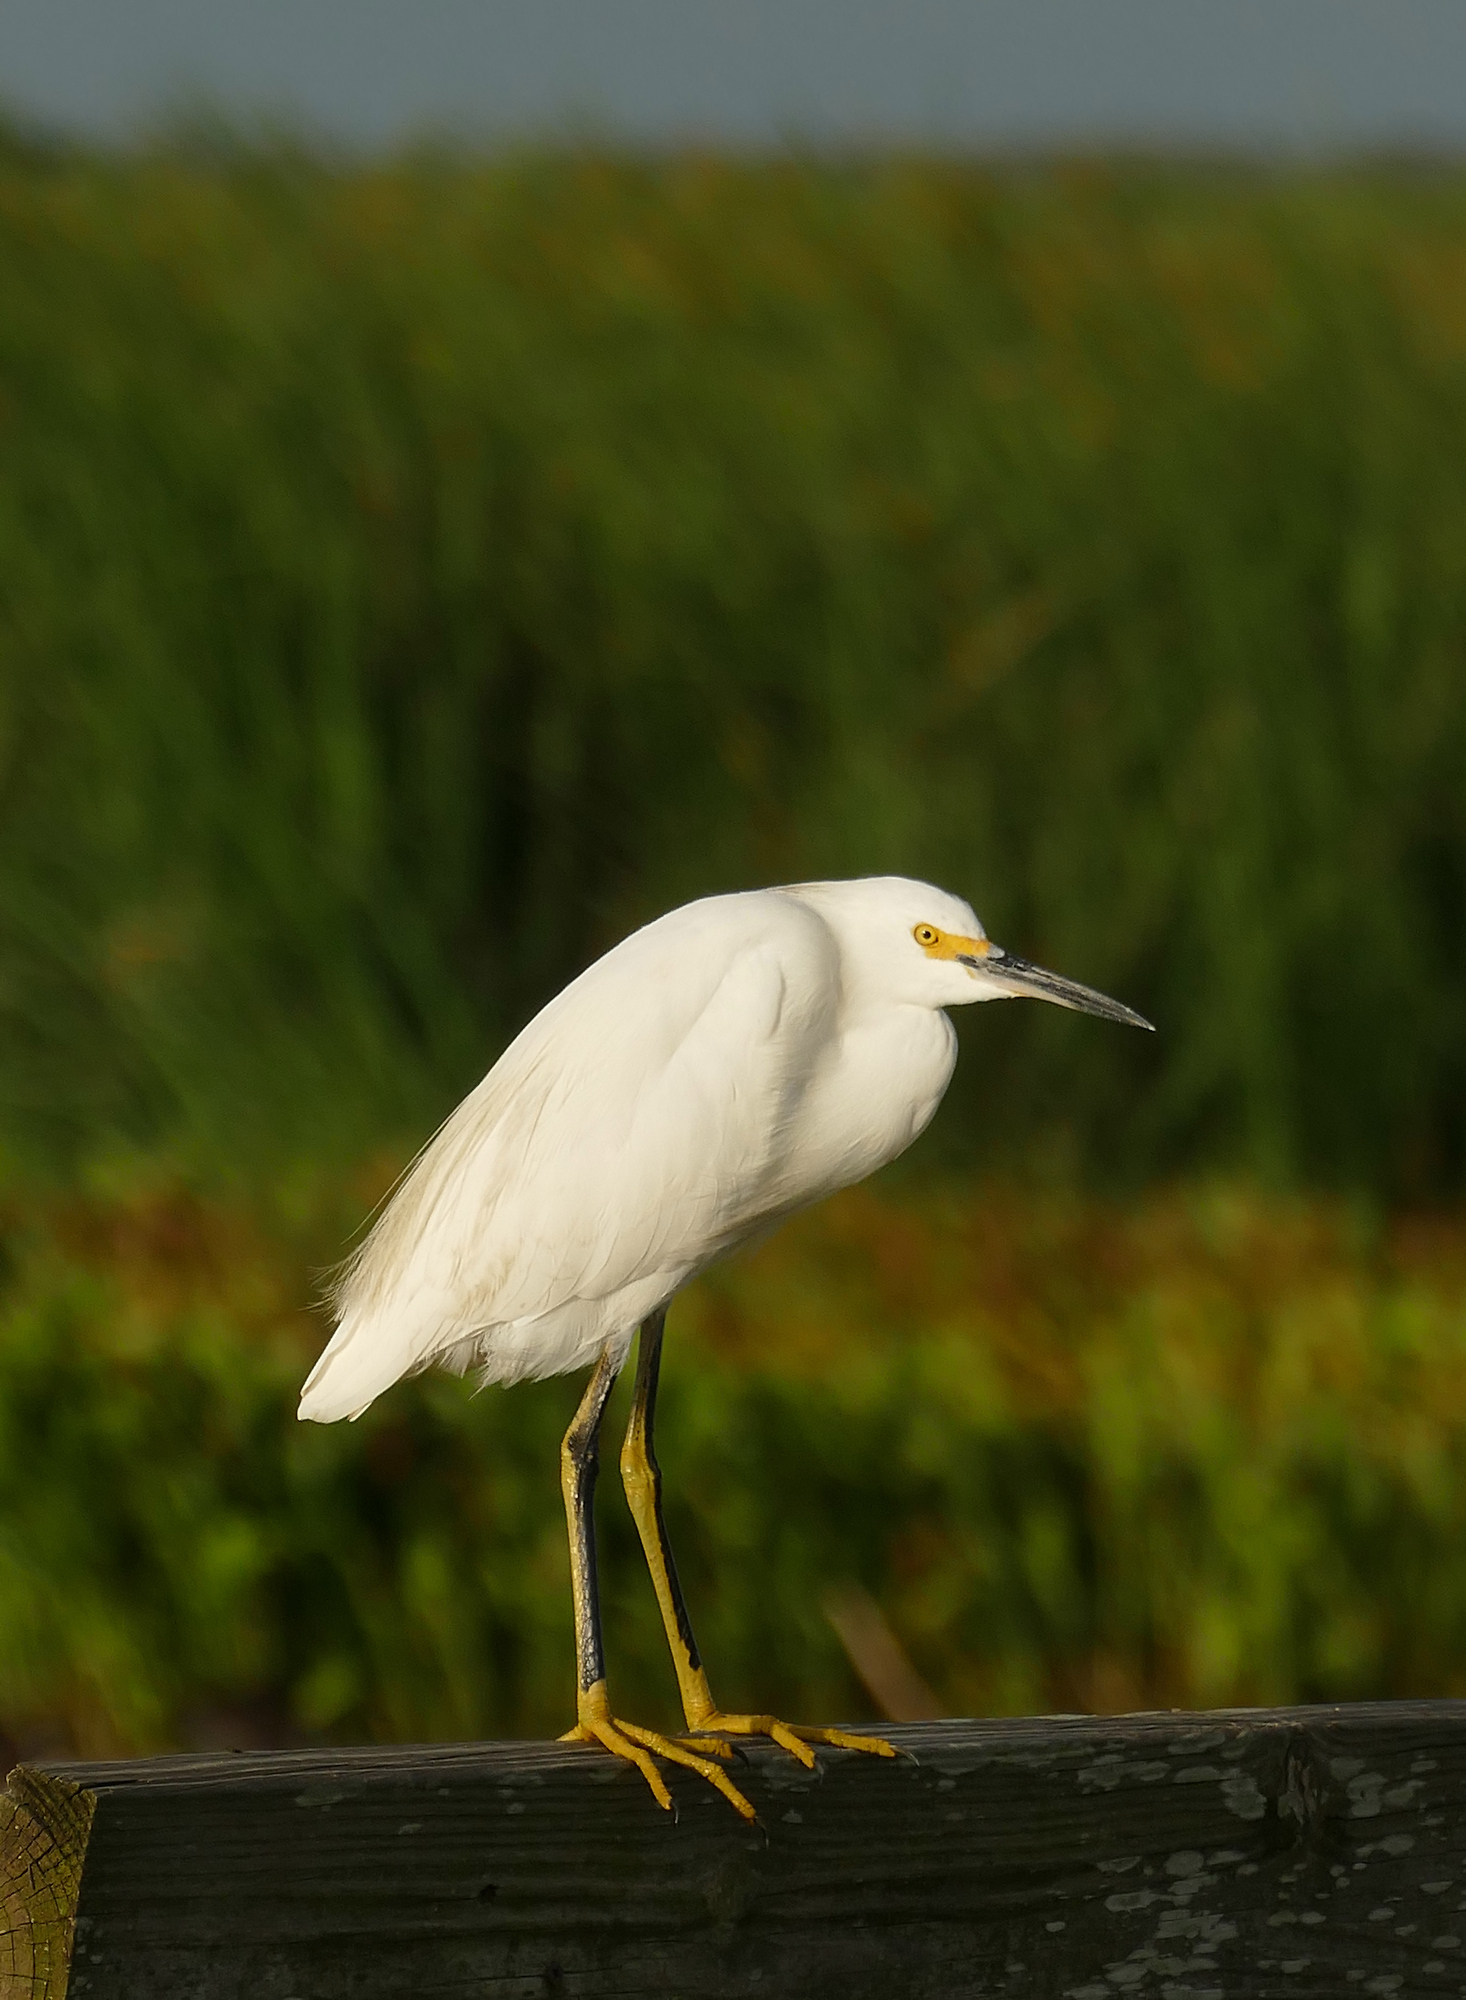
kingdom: Animalia
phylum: Chordata
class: Aves
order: Pelecaniformes
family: Ardeidae
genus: Egretta
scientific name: Egretta thula
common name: Snowy egret
